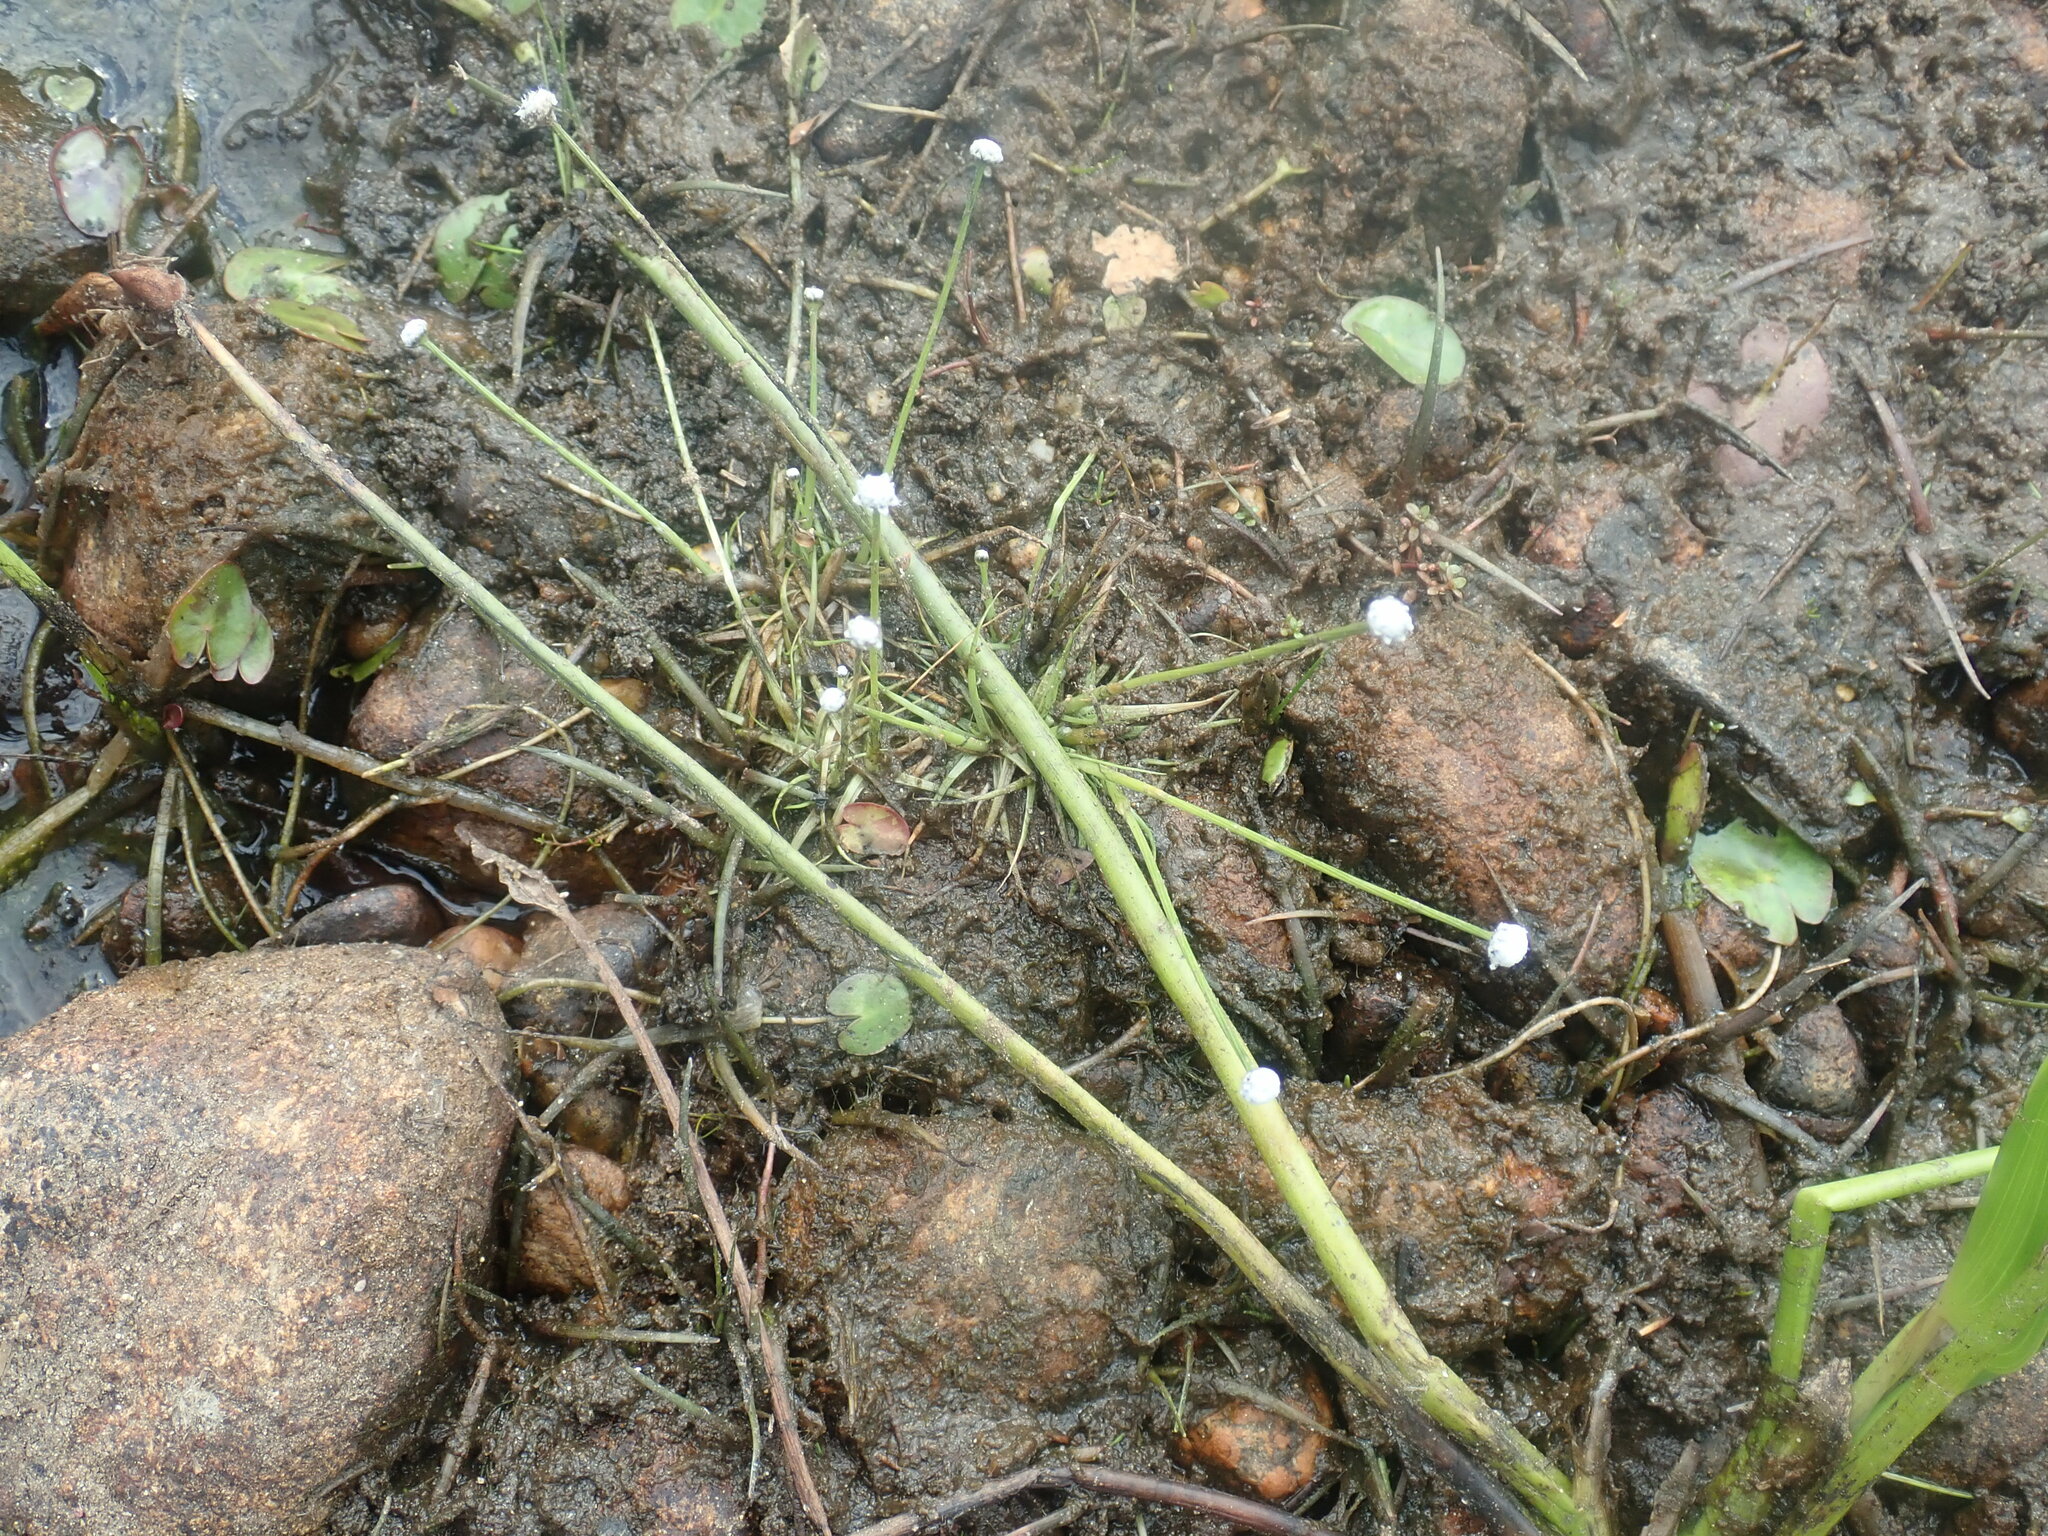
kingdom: Plantae
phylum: Tracheophyta
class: Liliopsida
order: Poales
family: Eriocaulaceae
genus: Eriocaulon
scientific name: Eriocaulon aquaticum
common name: Pipewort
